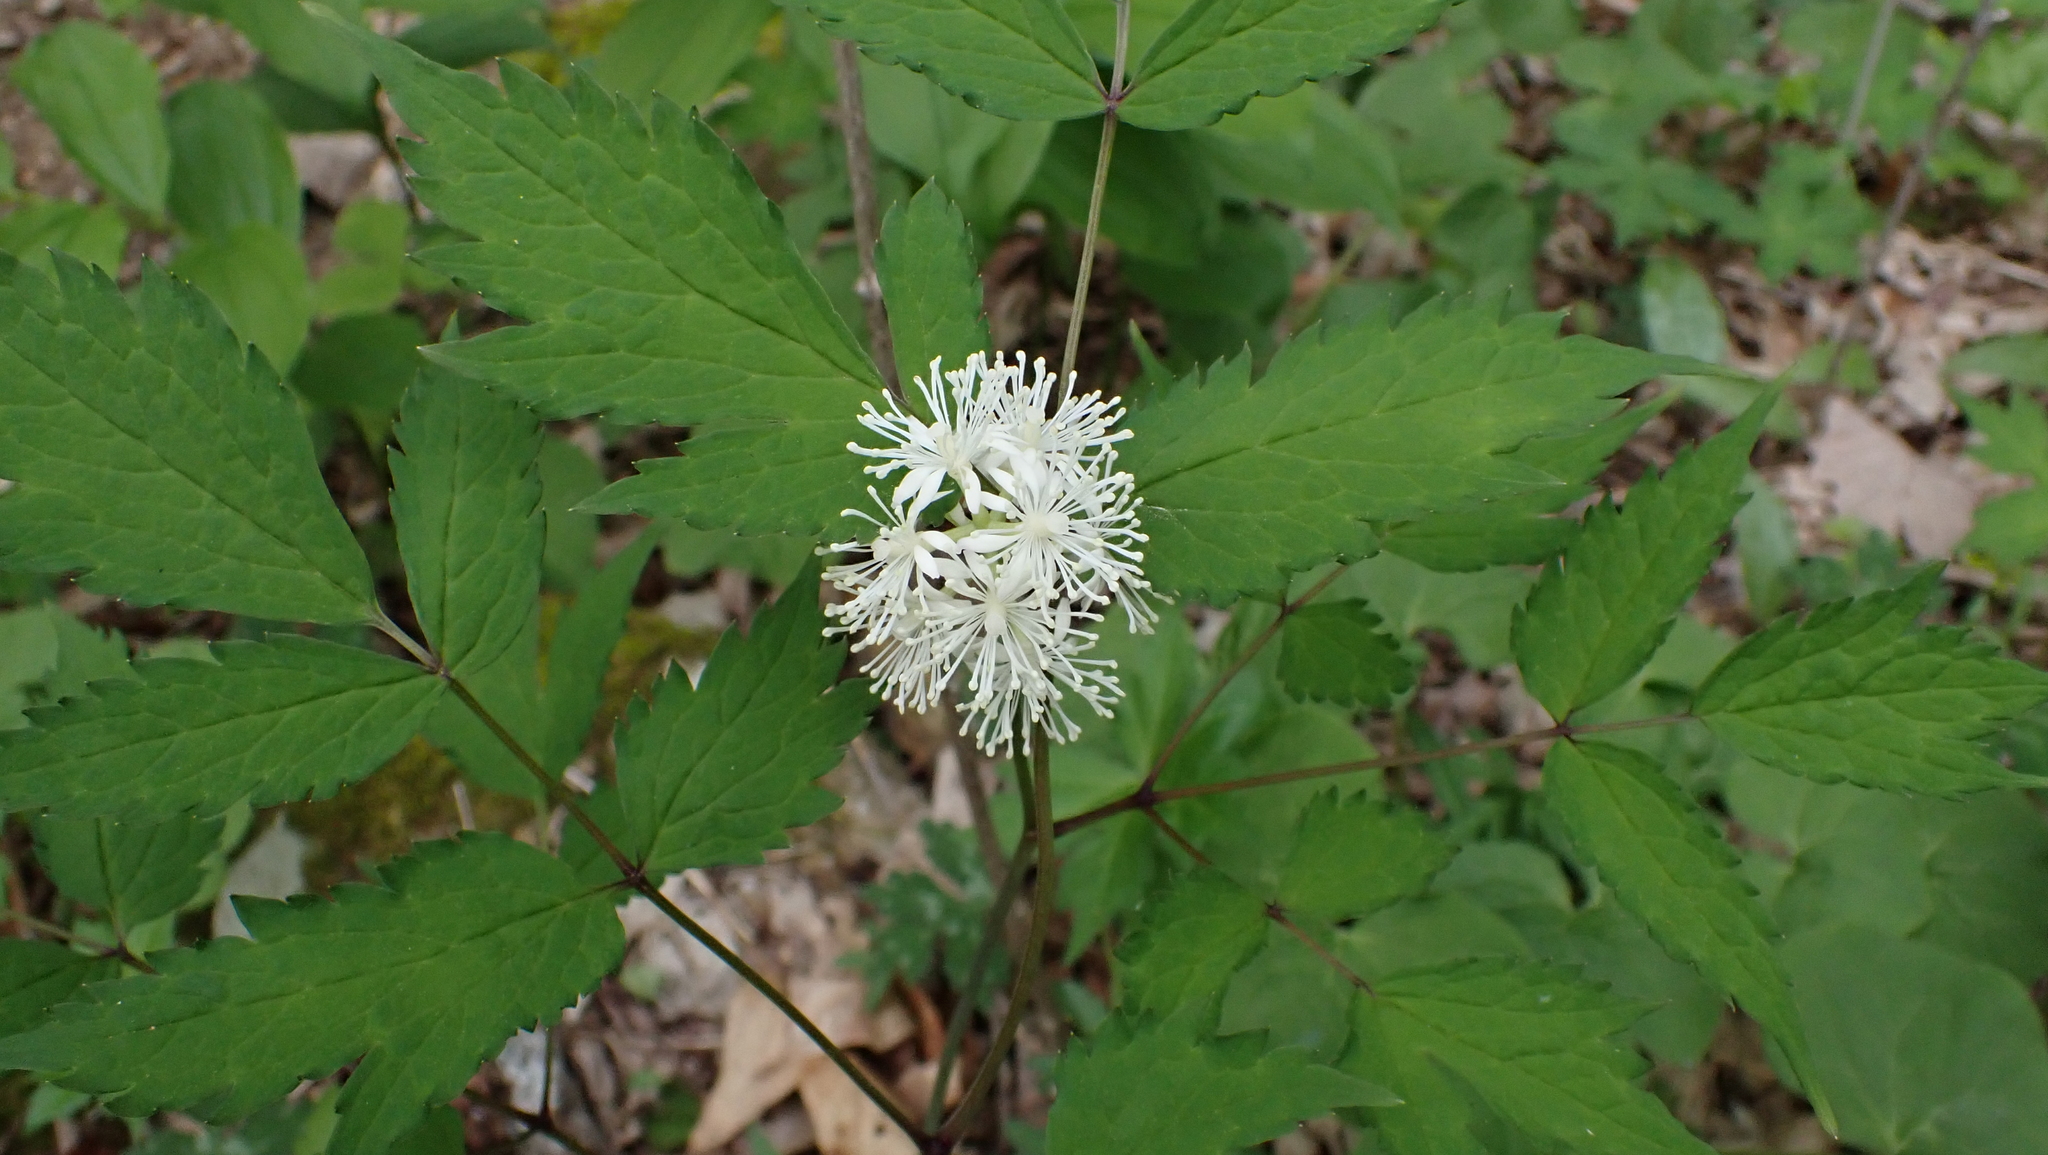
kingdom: Plantae
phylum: Tracheophyta
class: Magnoliopsida
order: Ranunculales
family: Ranunculaceae
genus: Actaea
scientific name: Actaea pachypoda
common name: Doll's-eyes
